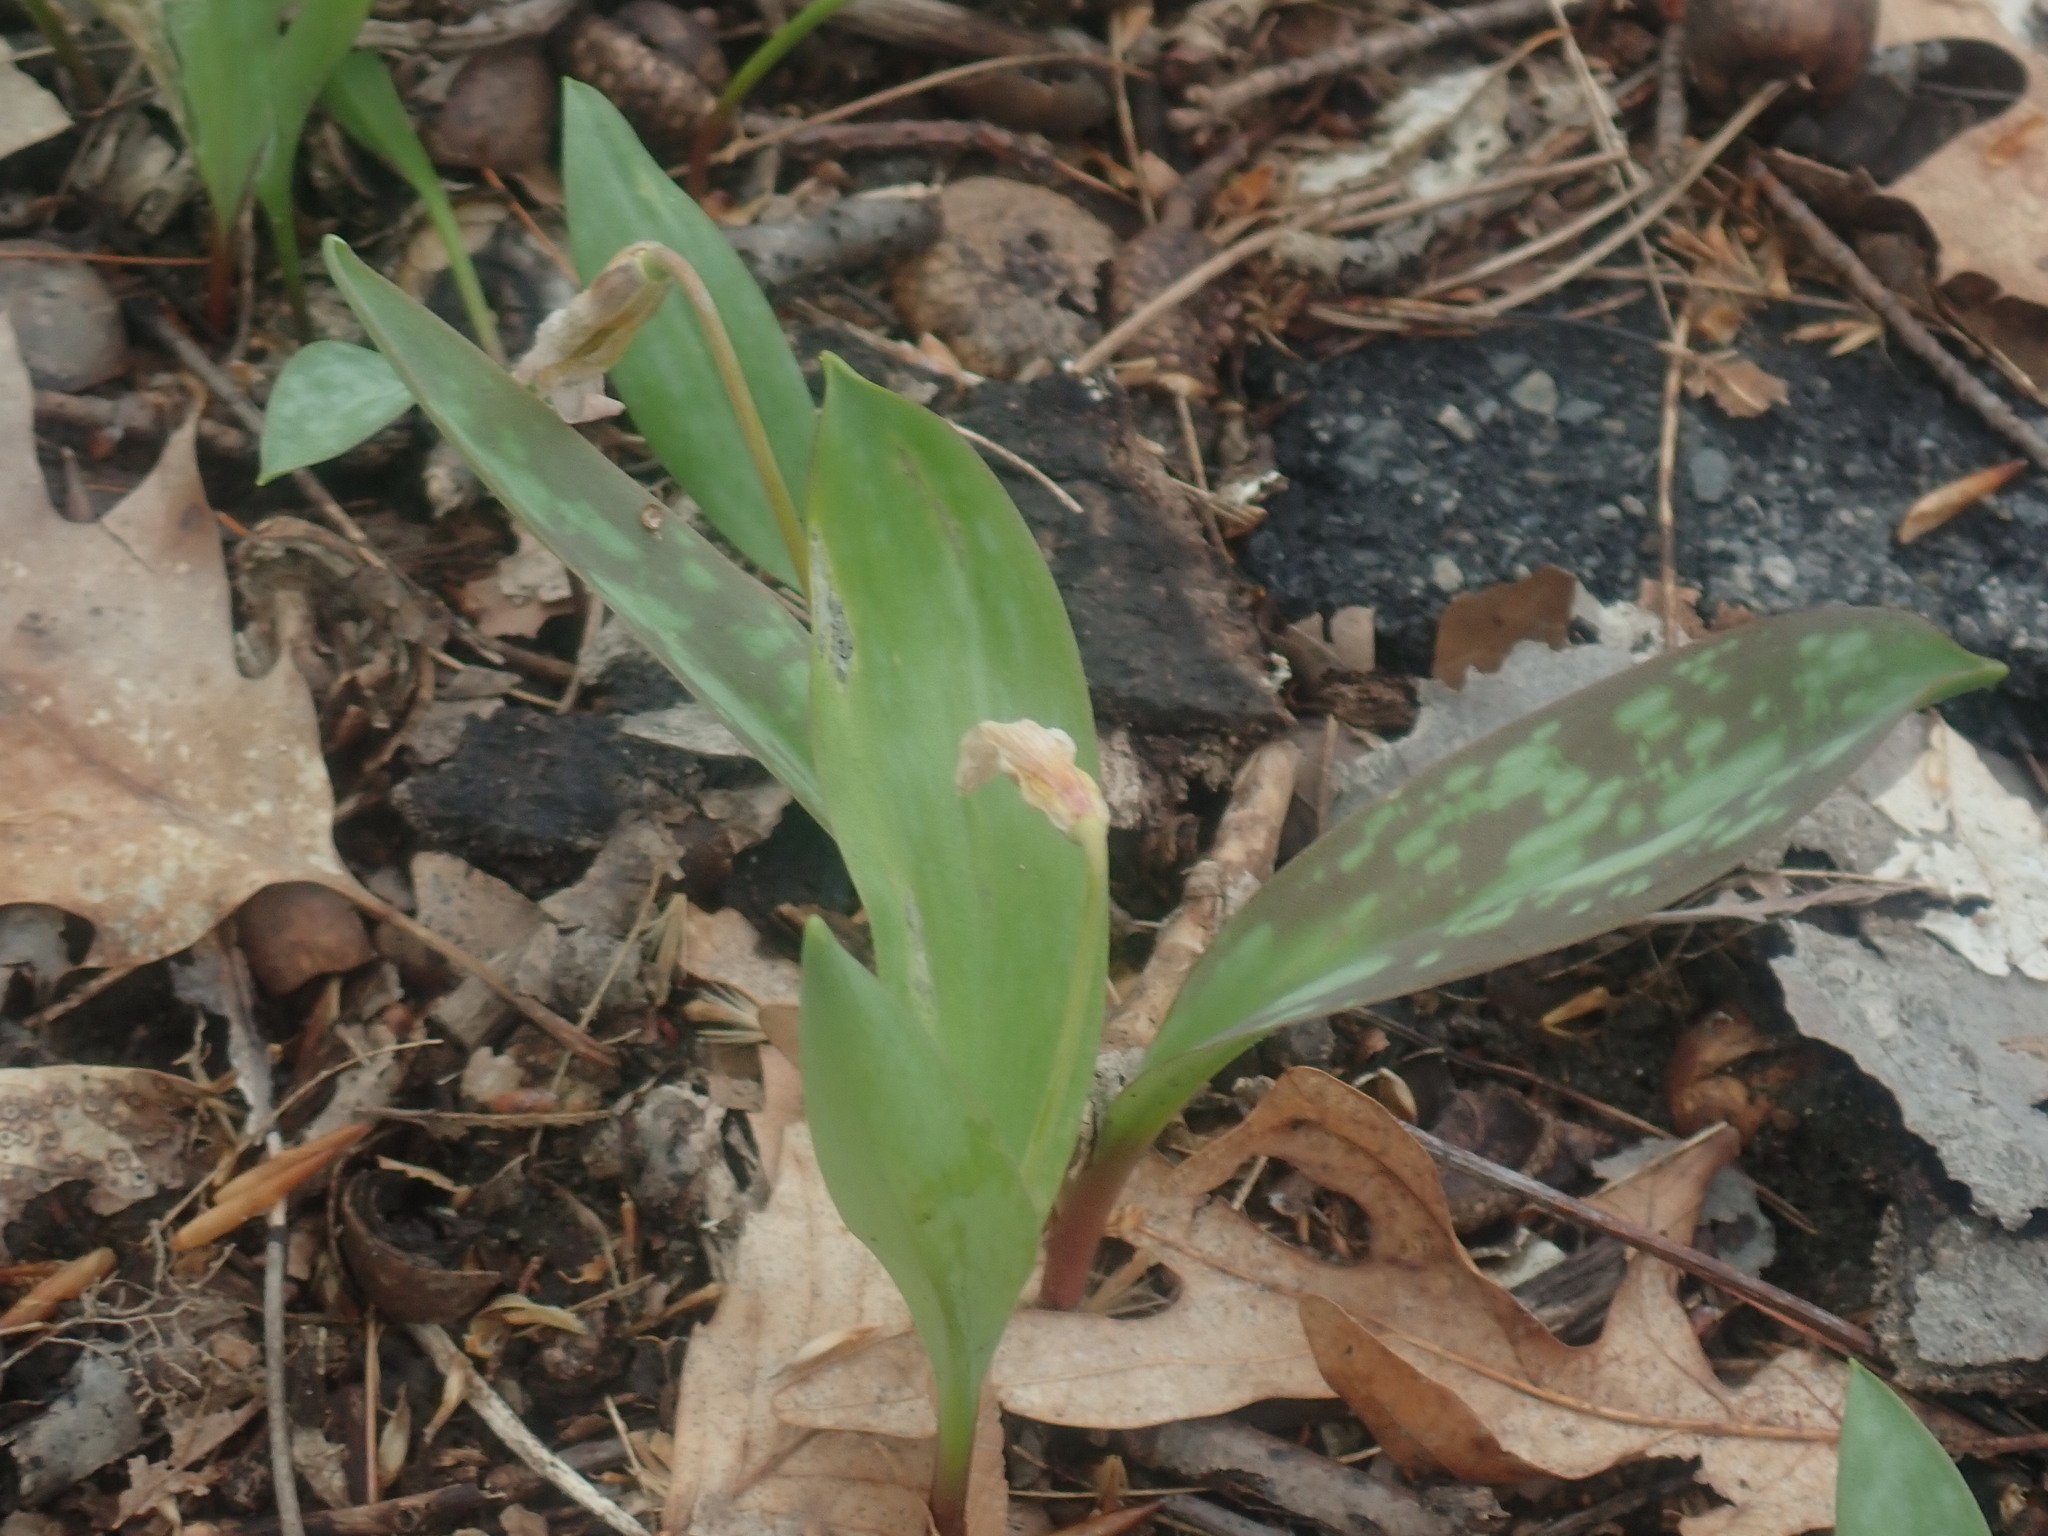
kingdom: Plantae
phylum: Tracheophyta
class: Liliopsida
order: Liliales
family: Liliaceae
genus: Erythronium
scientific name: Erythronium americanum
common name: Yellow adder's-tongue
